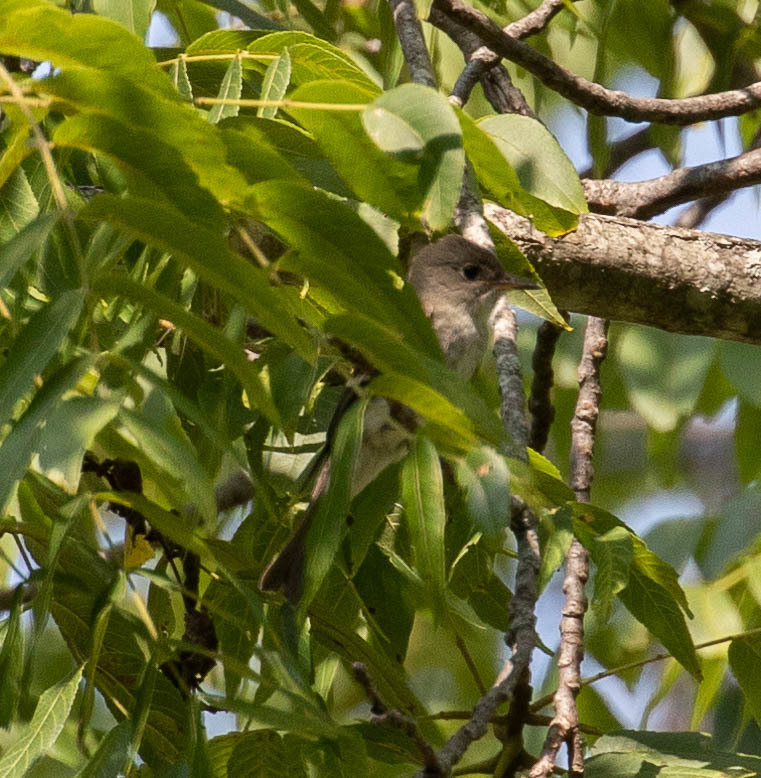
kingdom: Animalia
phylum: Chordata
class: Aves
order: Passeriformes
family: Tyrannidae
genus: Contopus
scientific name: Contopus virens
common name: Eastern wood-pewee
